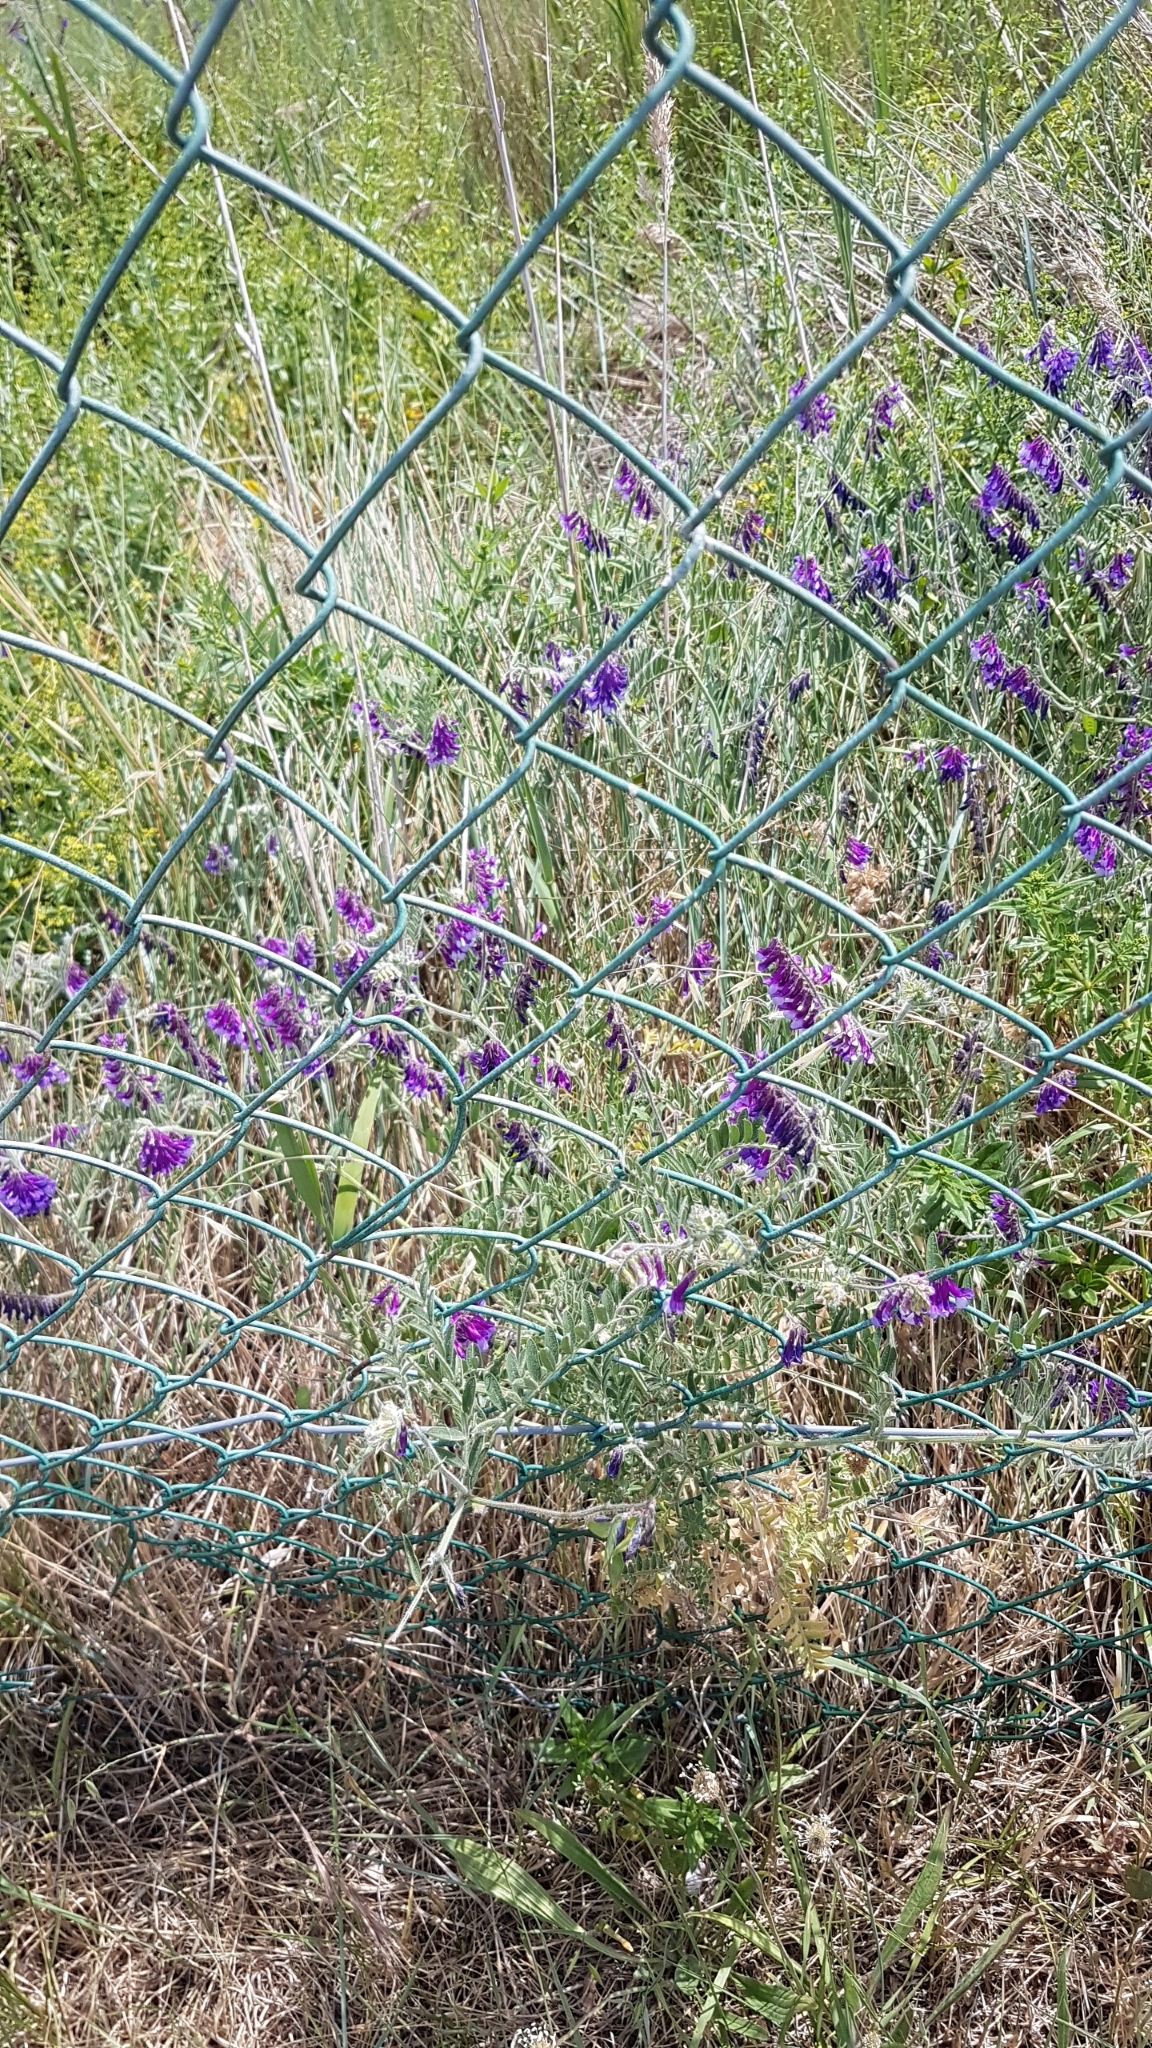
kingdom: Plantae
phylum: Tracheophyta
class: Magnoliopsida
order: Fabales
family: Fabaceae
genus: Vicia
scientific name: Vicia villosa
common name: Fodder vetch
